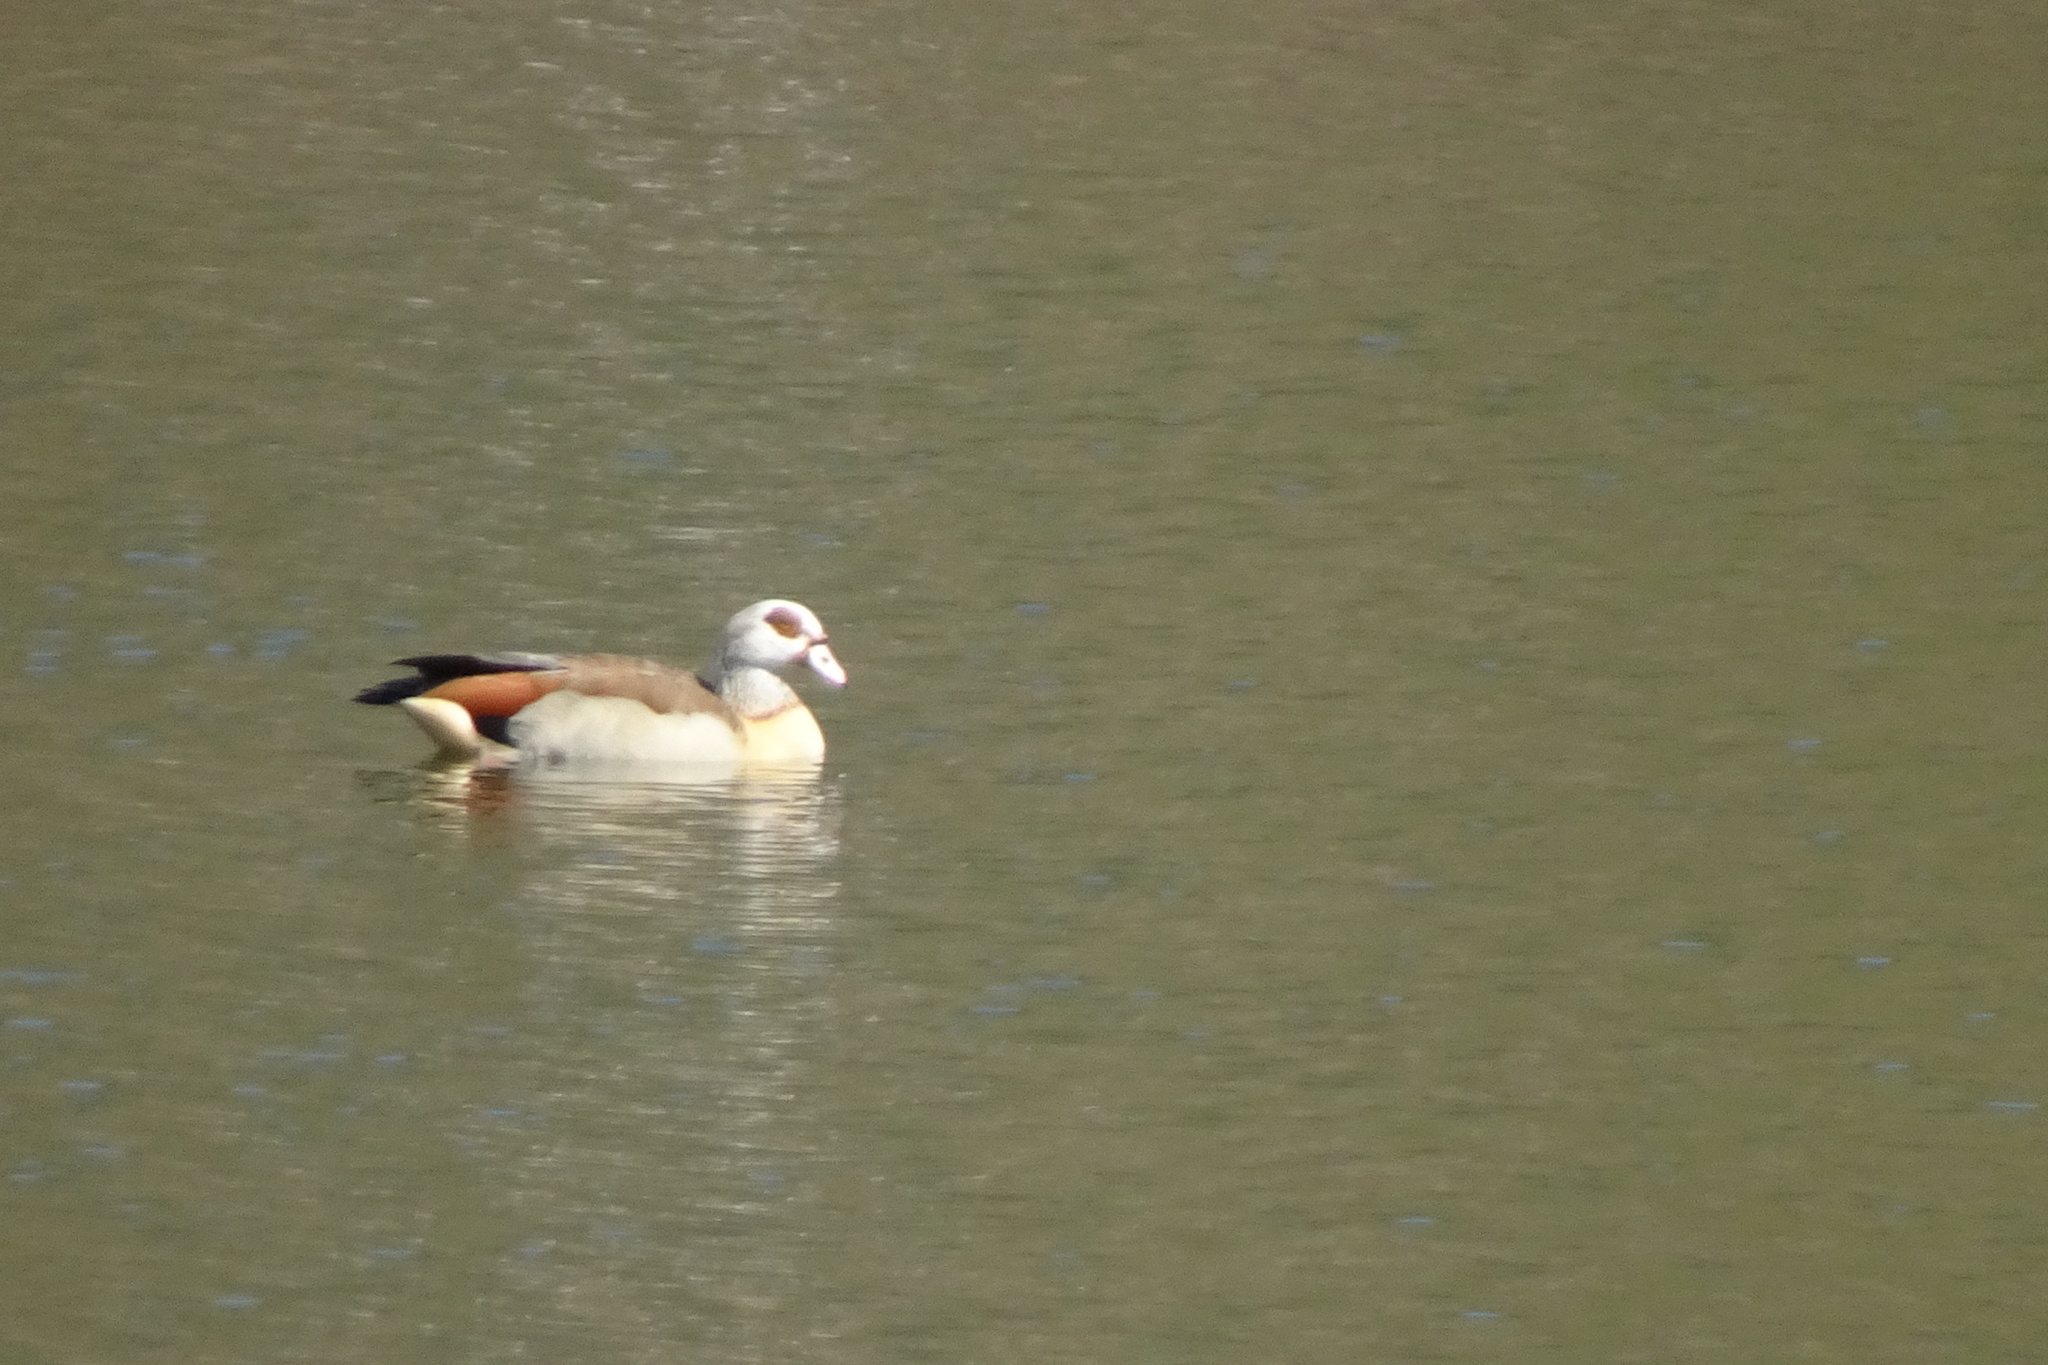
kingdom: Animalia
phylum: Chordata
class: Aves
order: Anseriformes
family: Anatidae
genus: Alopochen
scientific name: Alopochen aegyptiaca
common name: Egyptian goose
